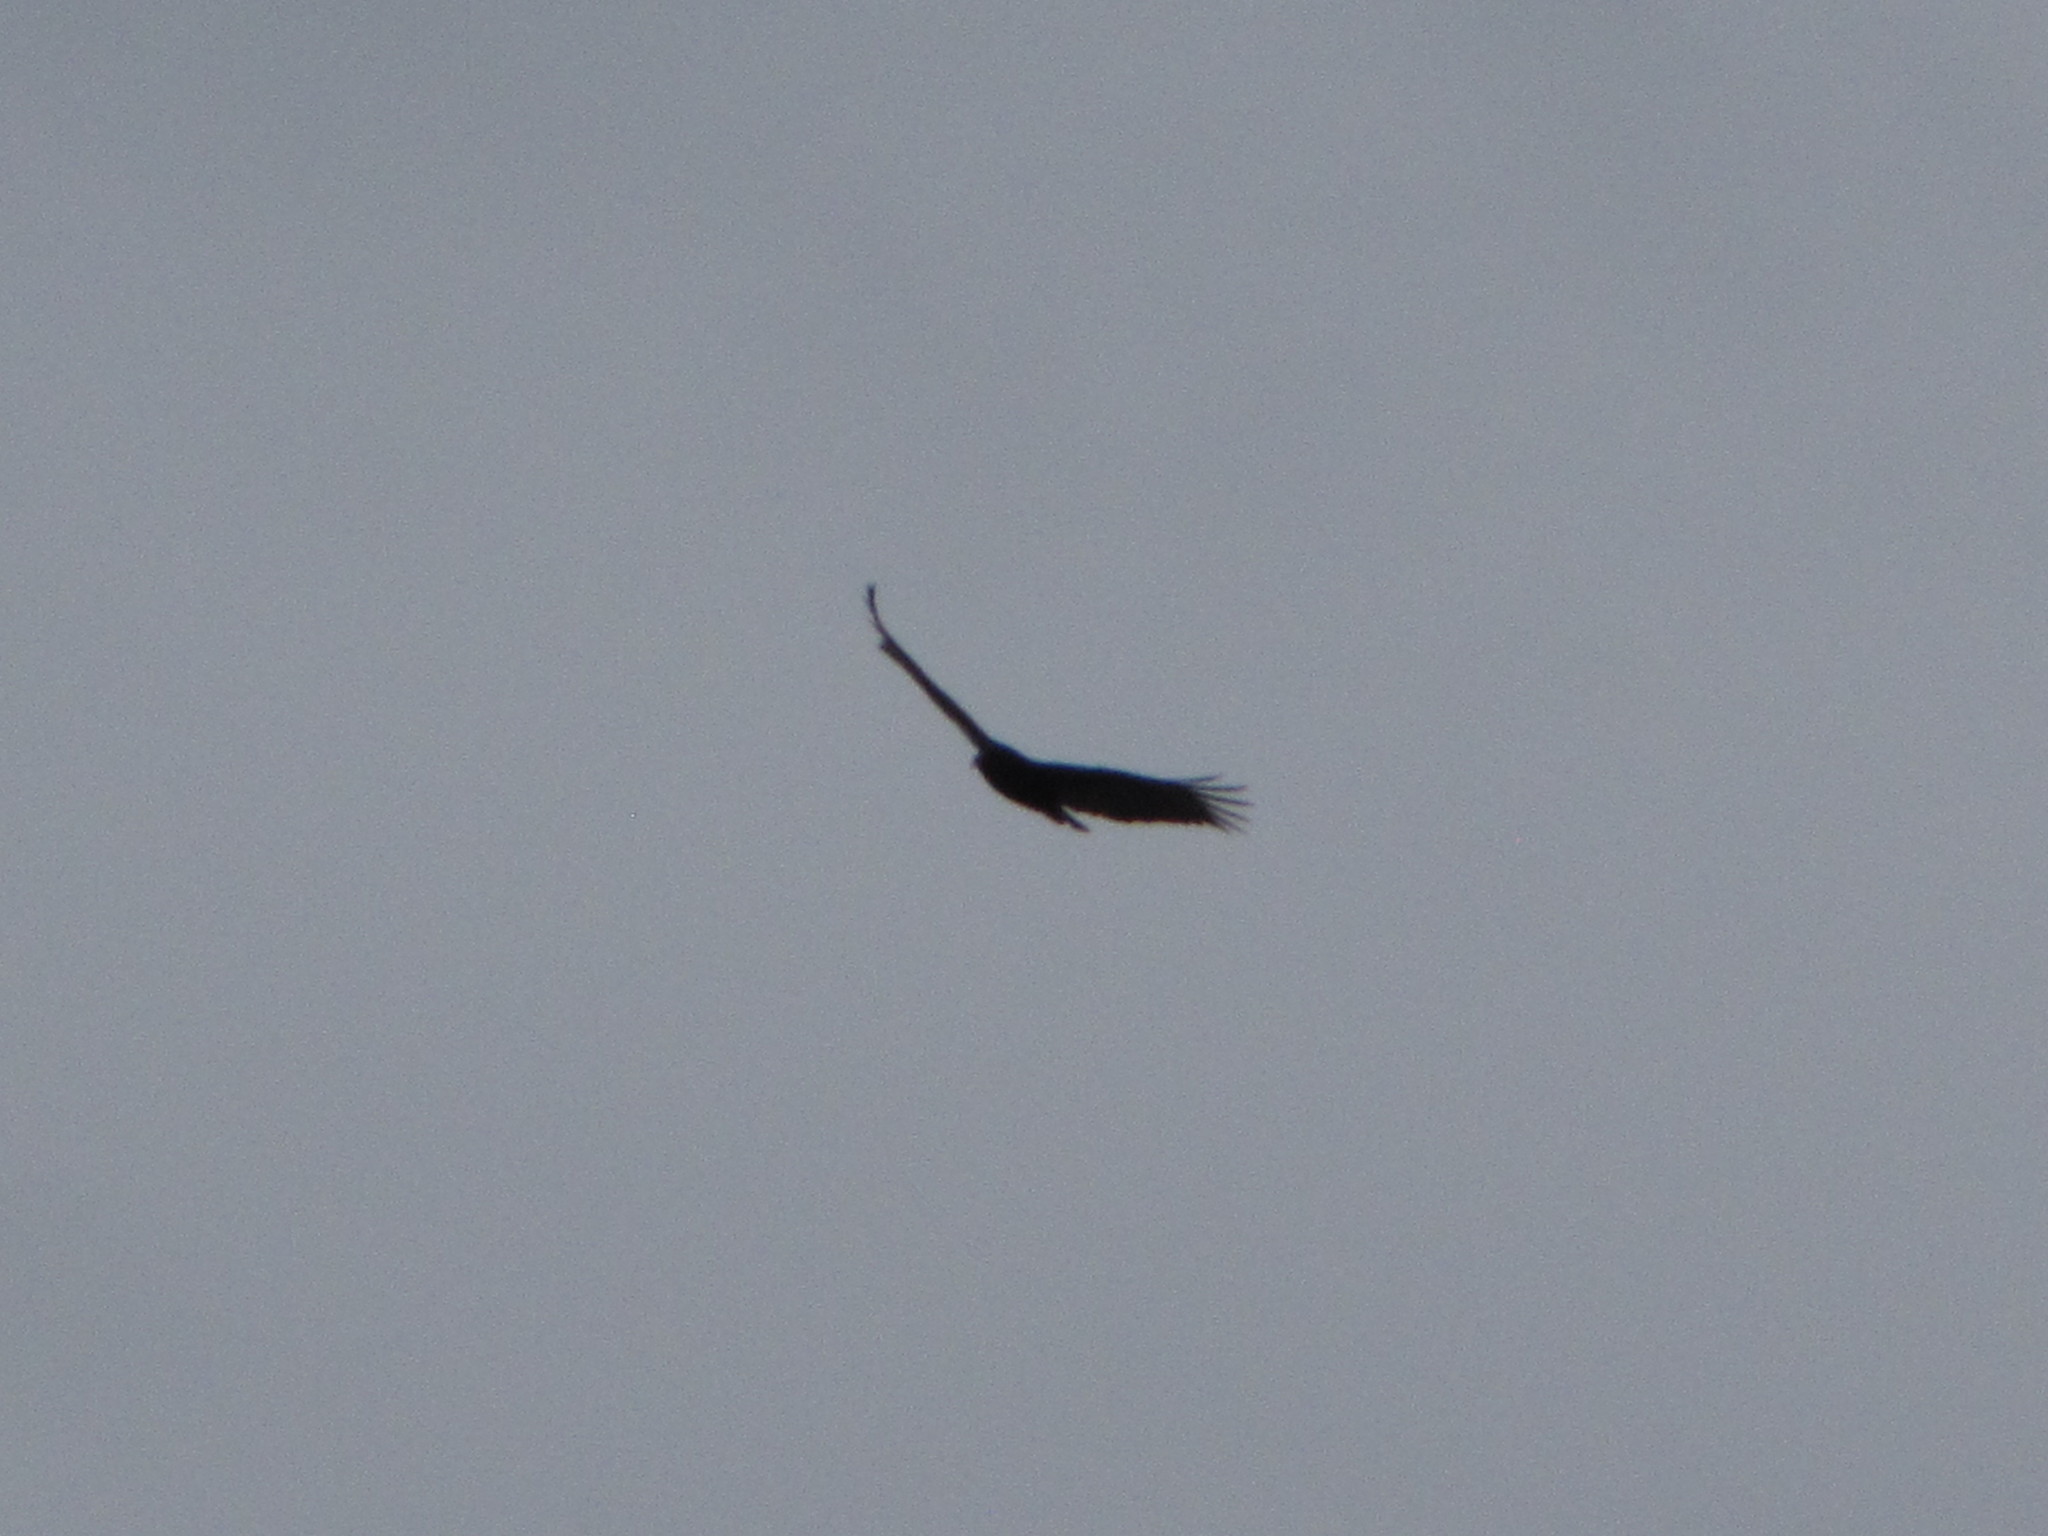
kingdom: Animalia
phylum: Chordata
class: Aves
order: Accipitriformes
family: Cathartidae
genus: Cathartes
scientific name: Cathartes aura
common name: Turkey vulture
